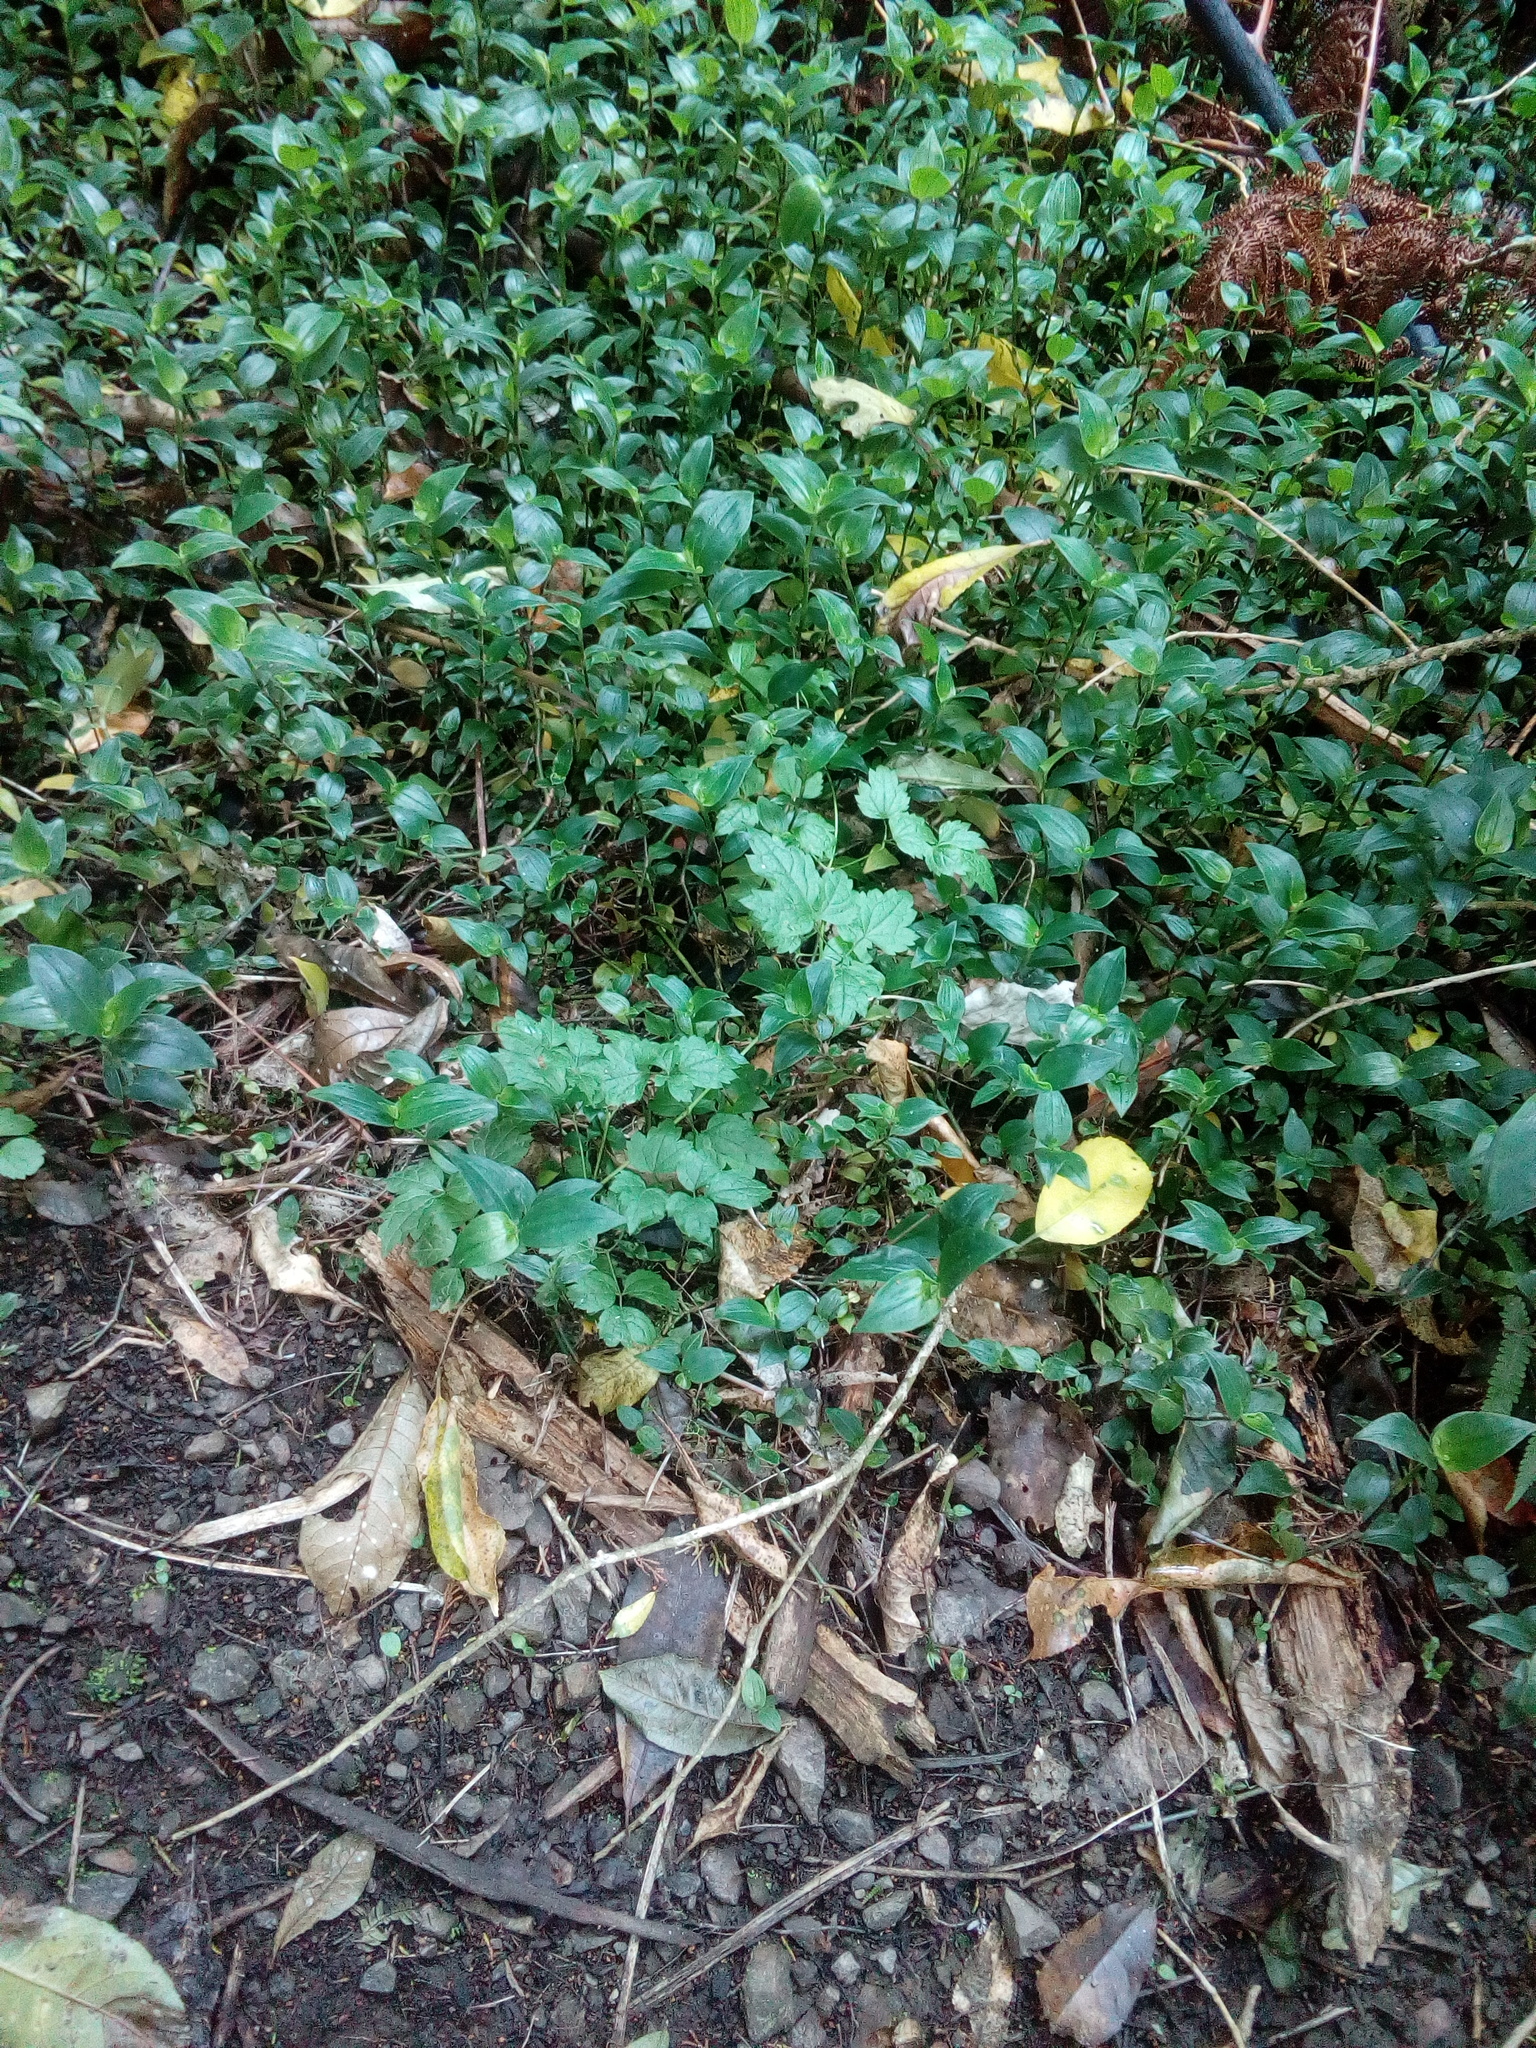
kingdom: Plantae
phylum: Tracheophyta
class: Magnoliopsida
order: Ranunculales
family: Ranunculaceae
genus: Clematis
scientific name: Clematis vitalba
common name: Evergreen clematis
